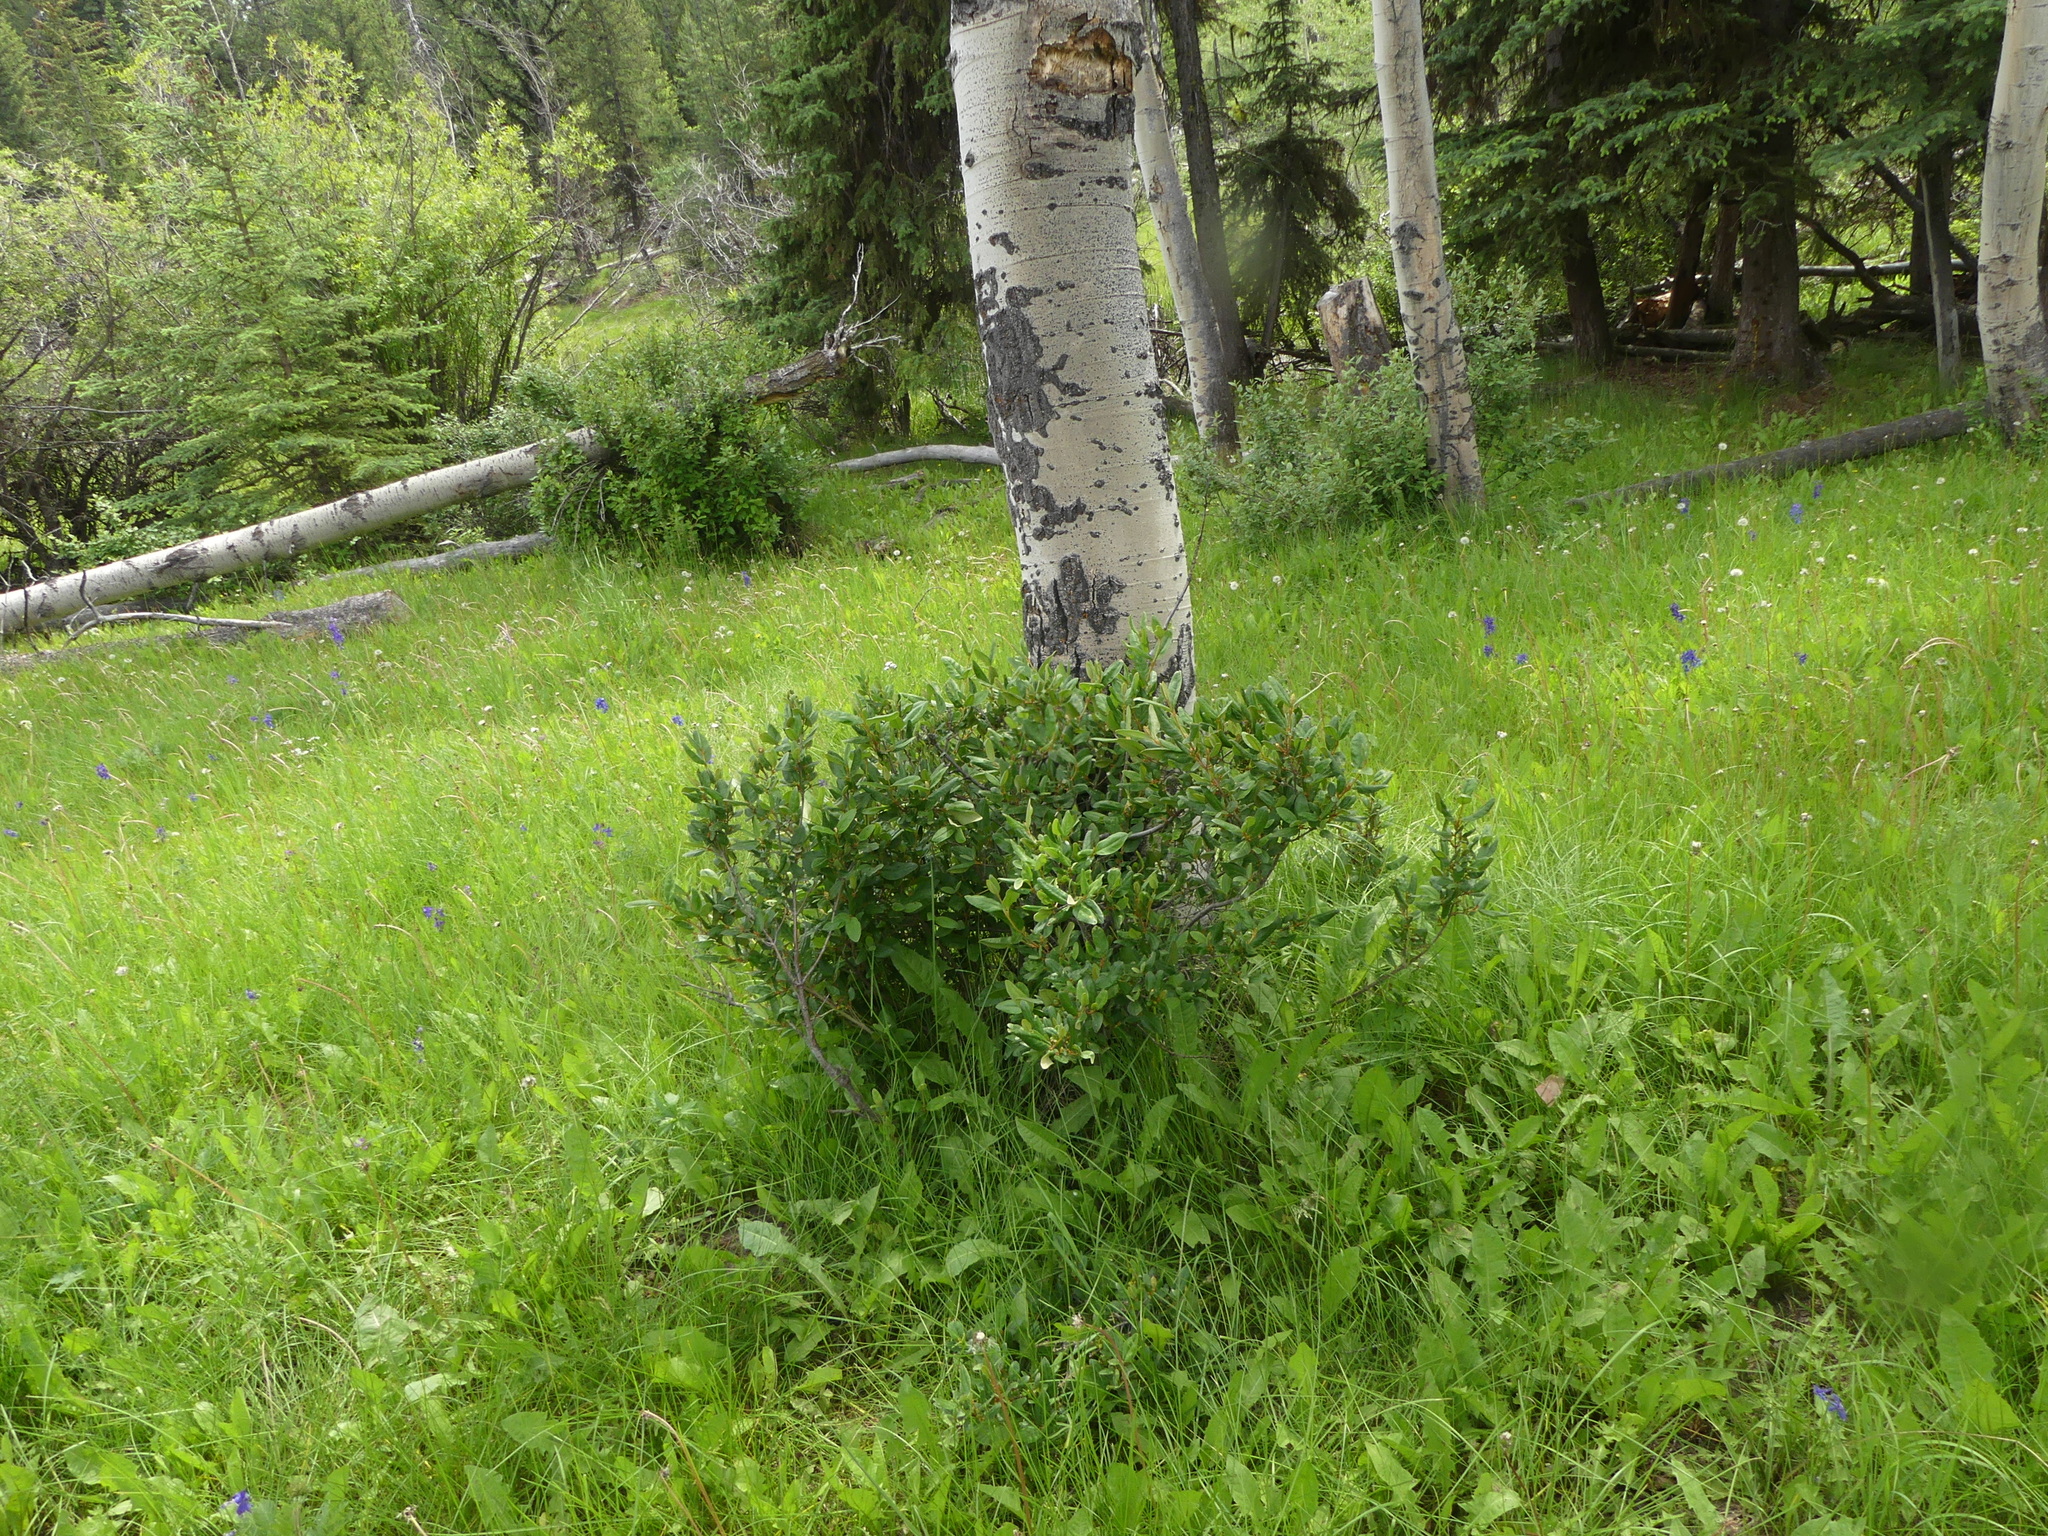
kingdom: Plantae
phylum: Tracheophyta
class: Magnoliopsida
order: Rosales
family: Elaeagnaceae
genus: Shepherdia
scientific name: Shepherdia canadensis
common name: Soapberry
